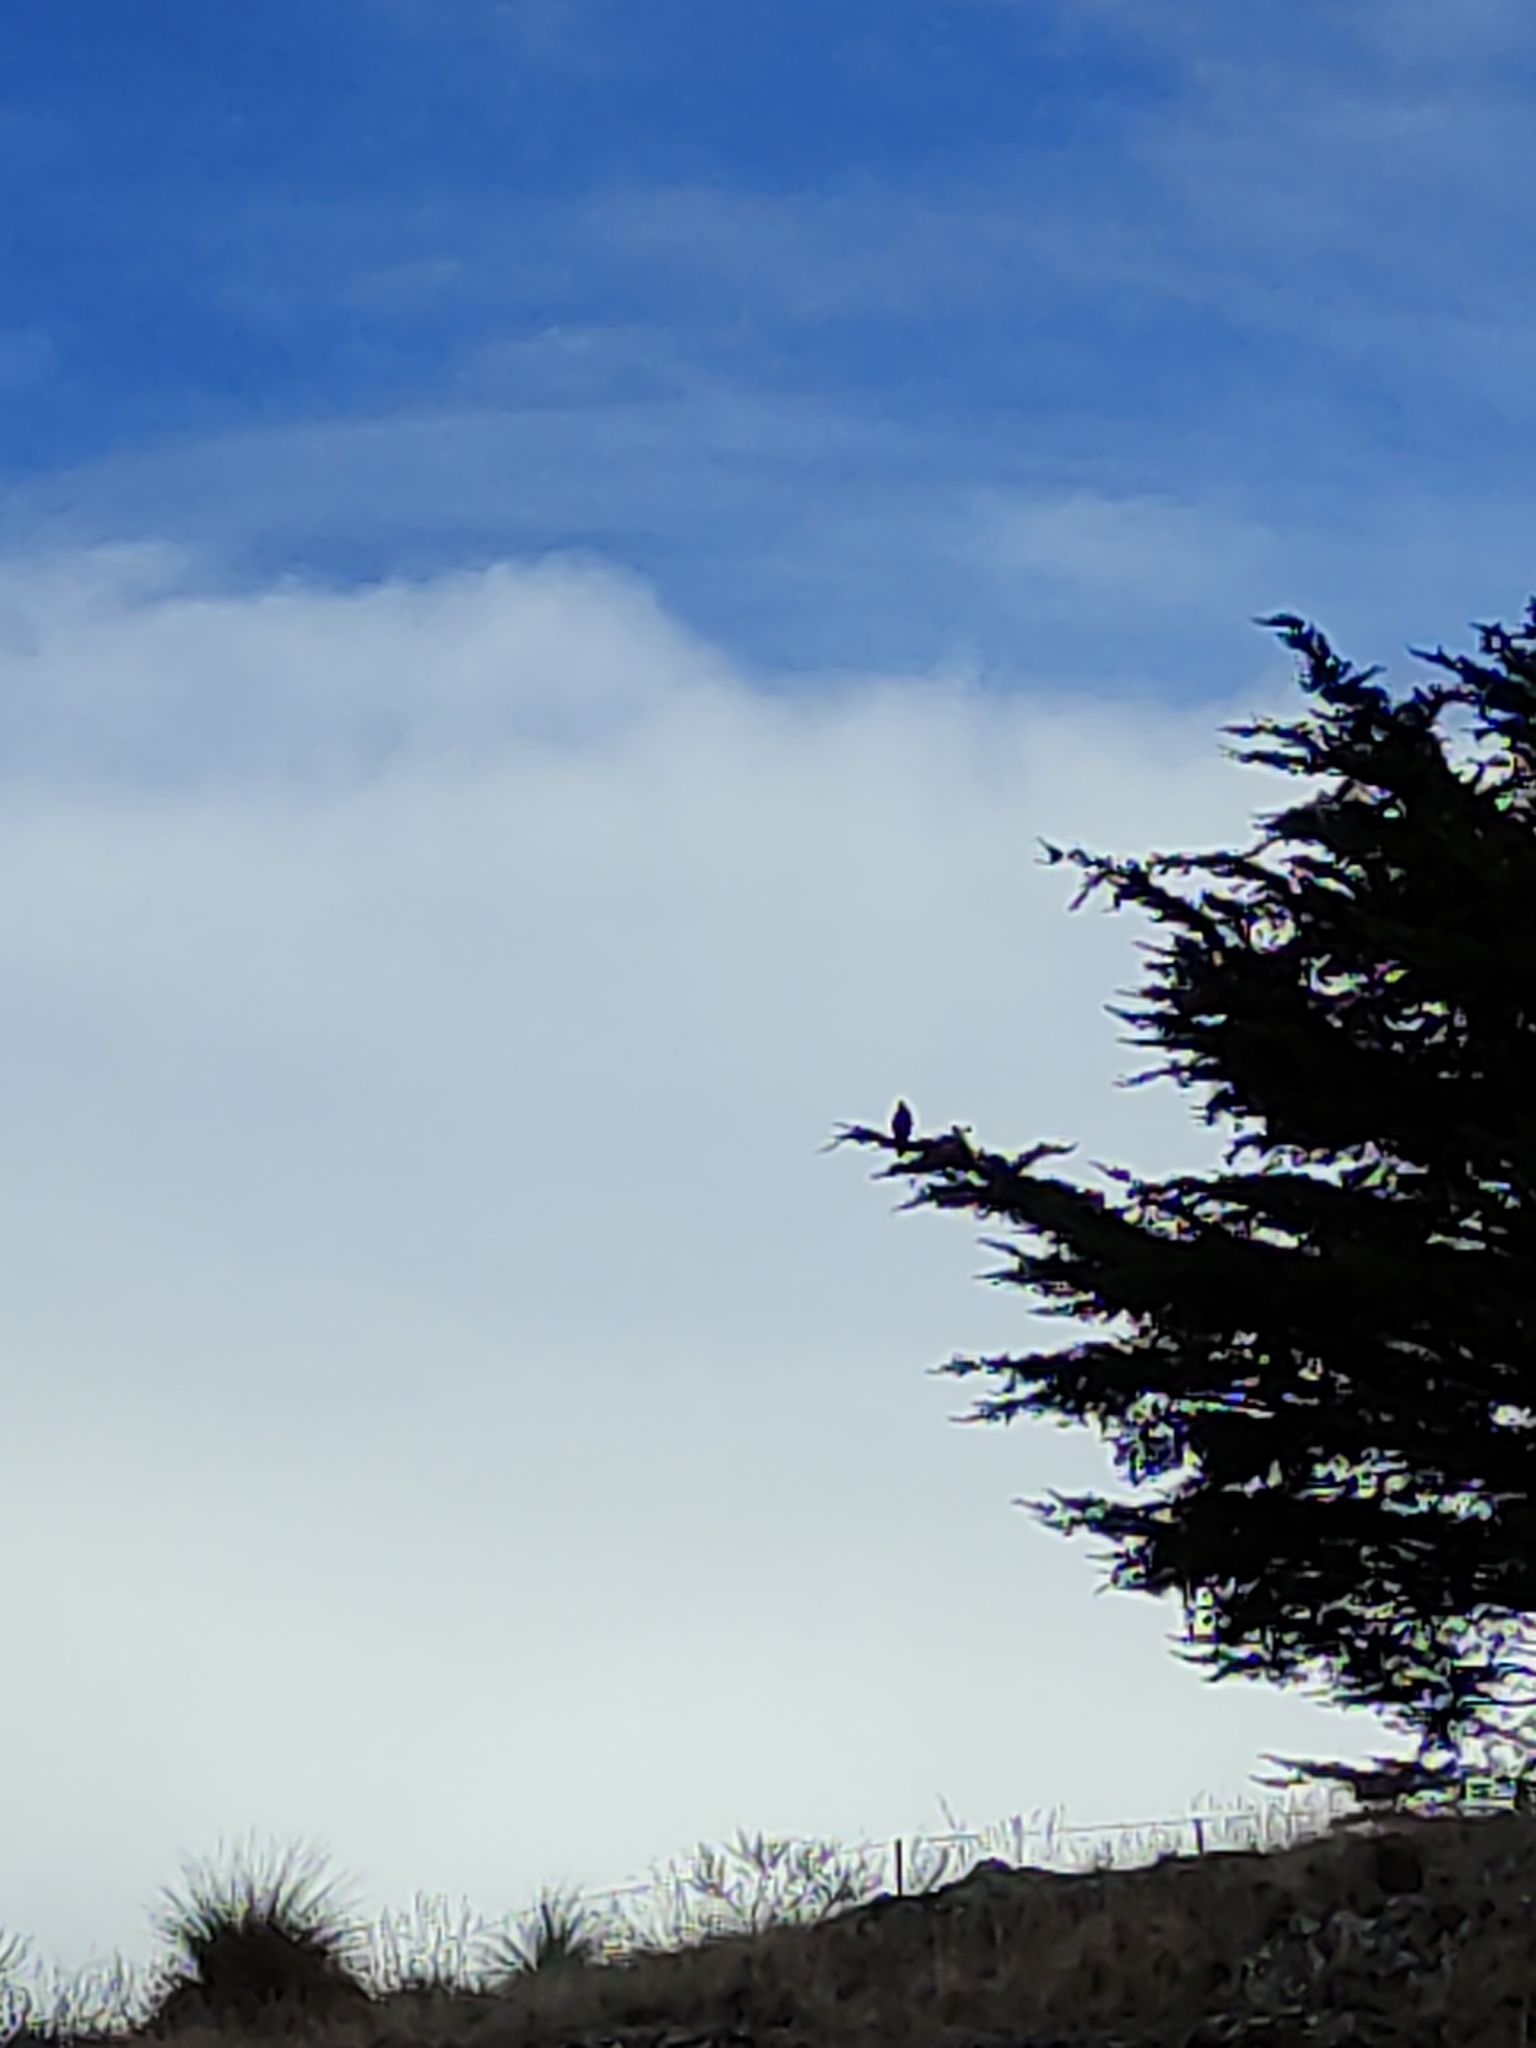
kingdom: Animalia
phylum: Chordata
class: Aves
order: Falconiformes
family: Falconidae
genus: Falco
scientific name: Falco novaeseelandiae
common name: New zealand falcon
